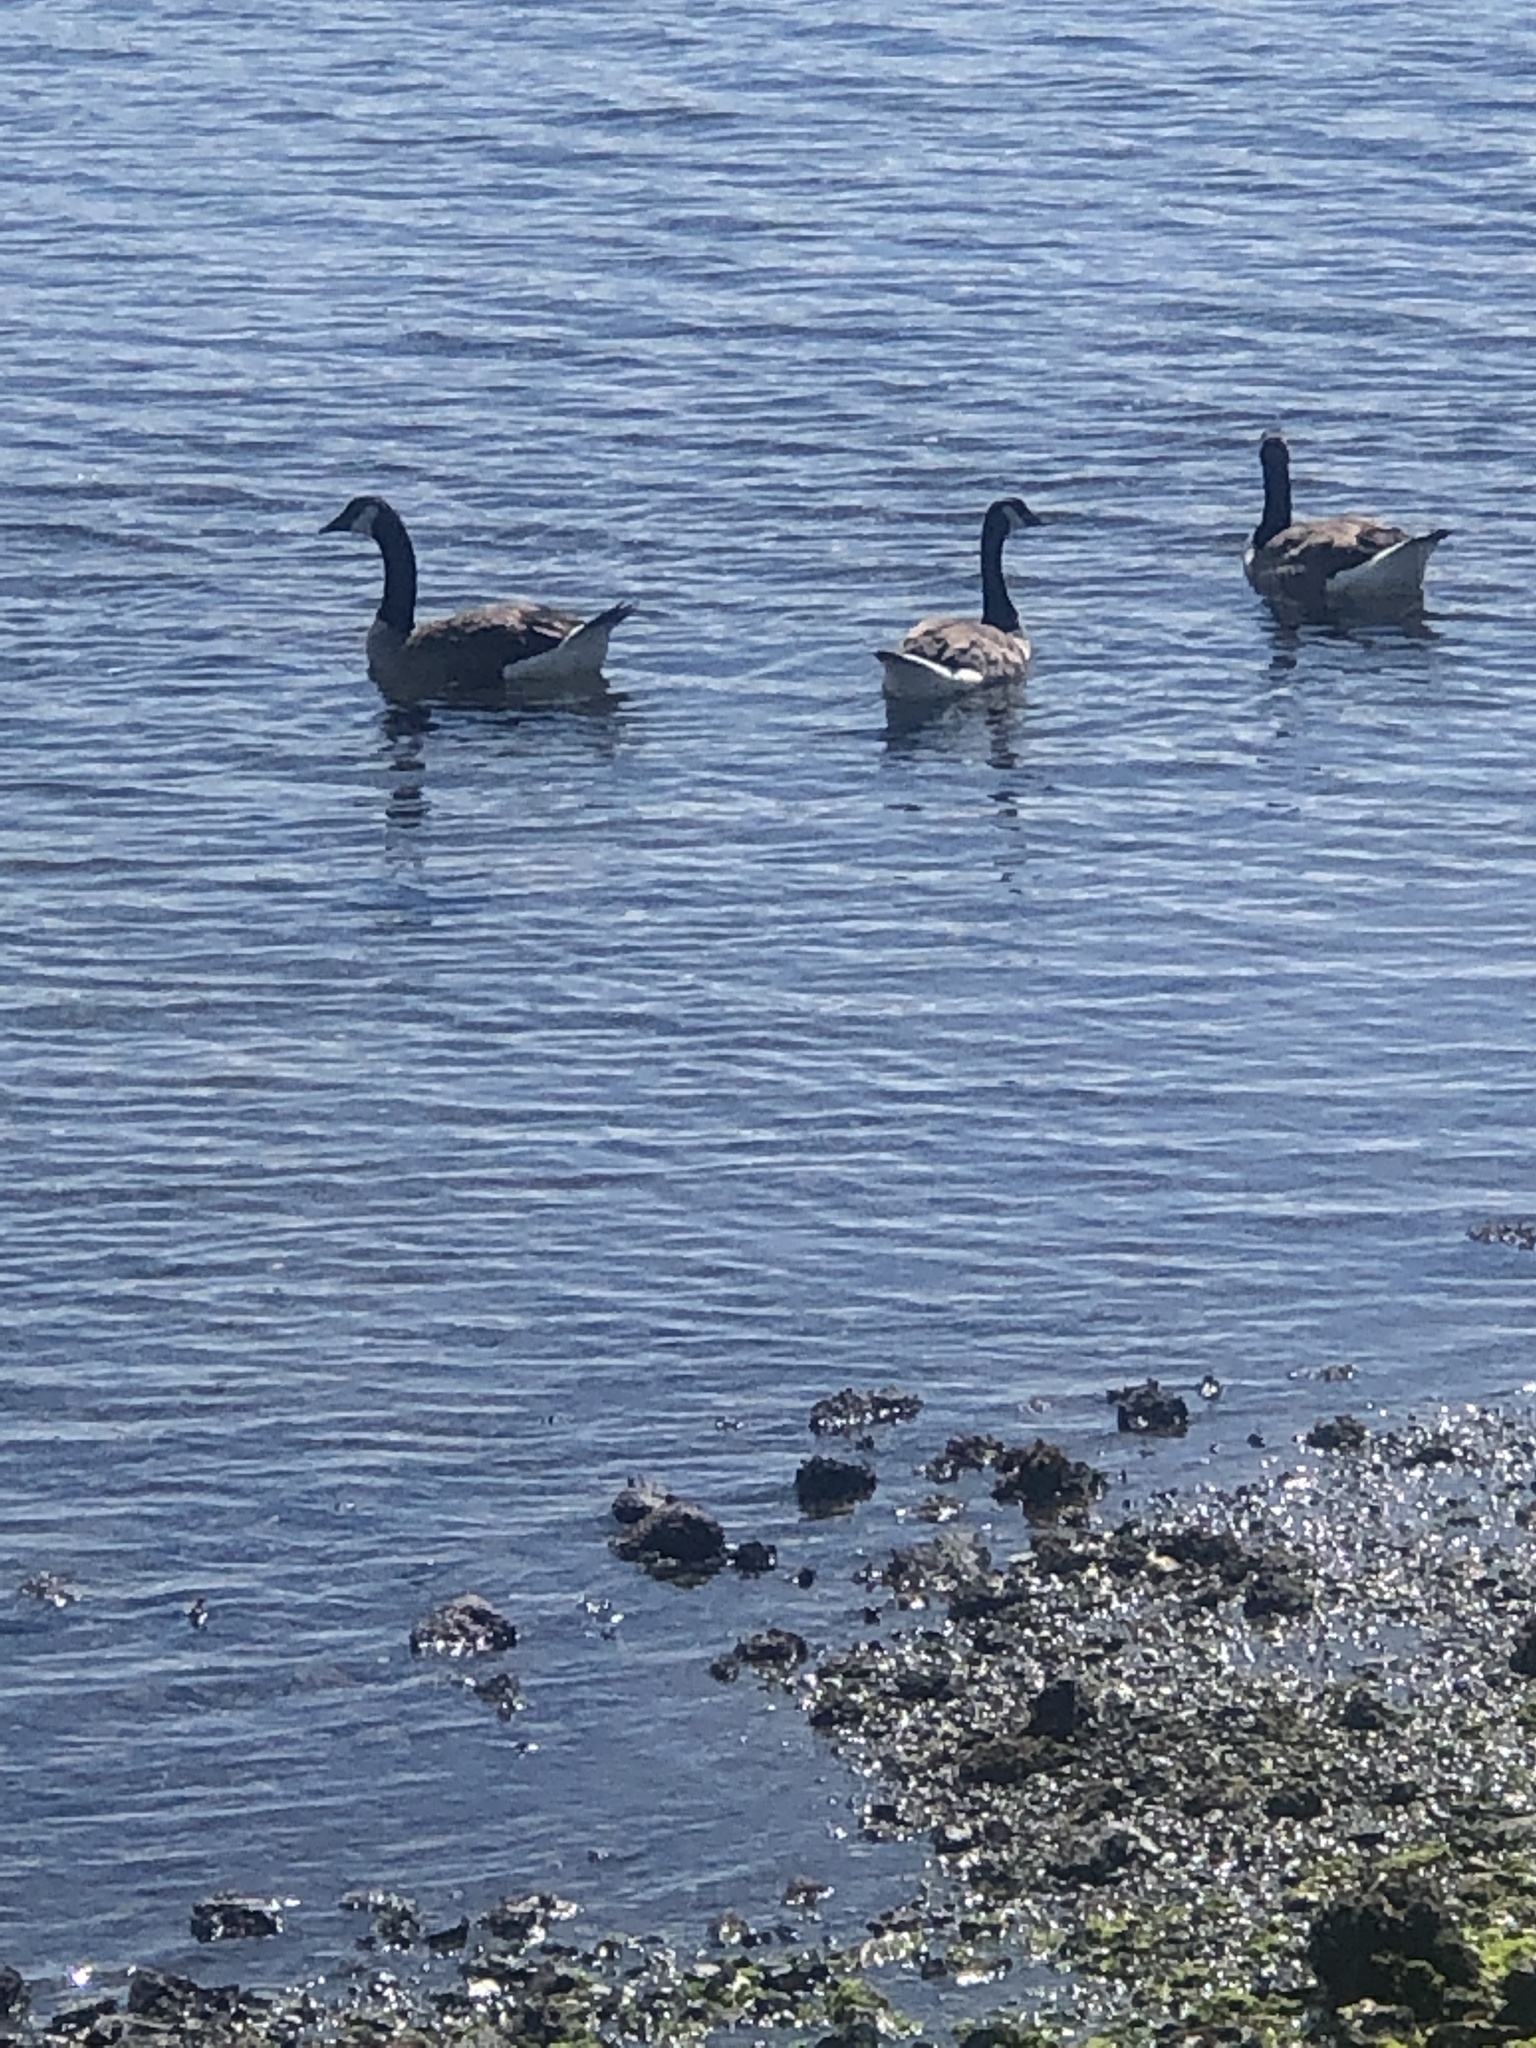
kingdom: Animalia
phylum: Chordata
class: Aves
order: Anseriformes
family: Anatidae
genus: Branta
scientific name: Branta canadensis
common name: Canada goose
